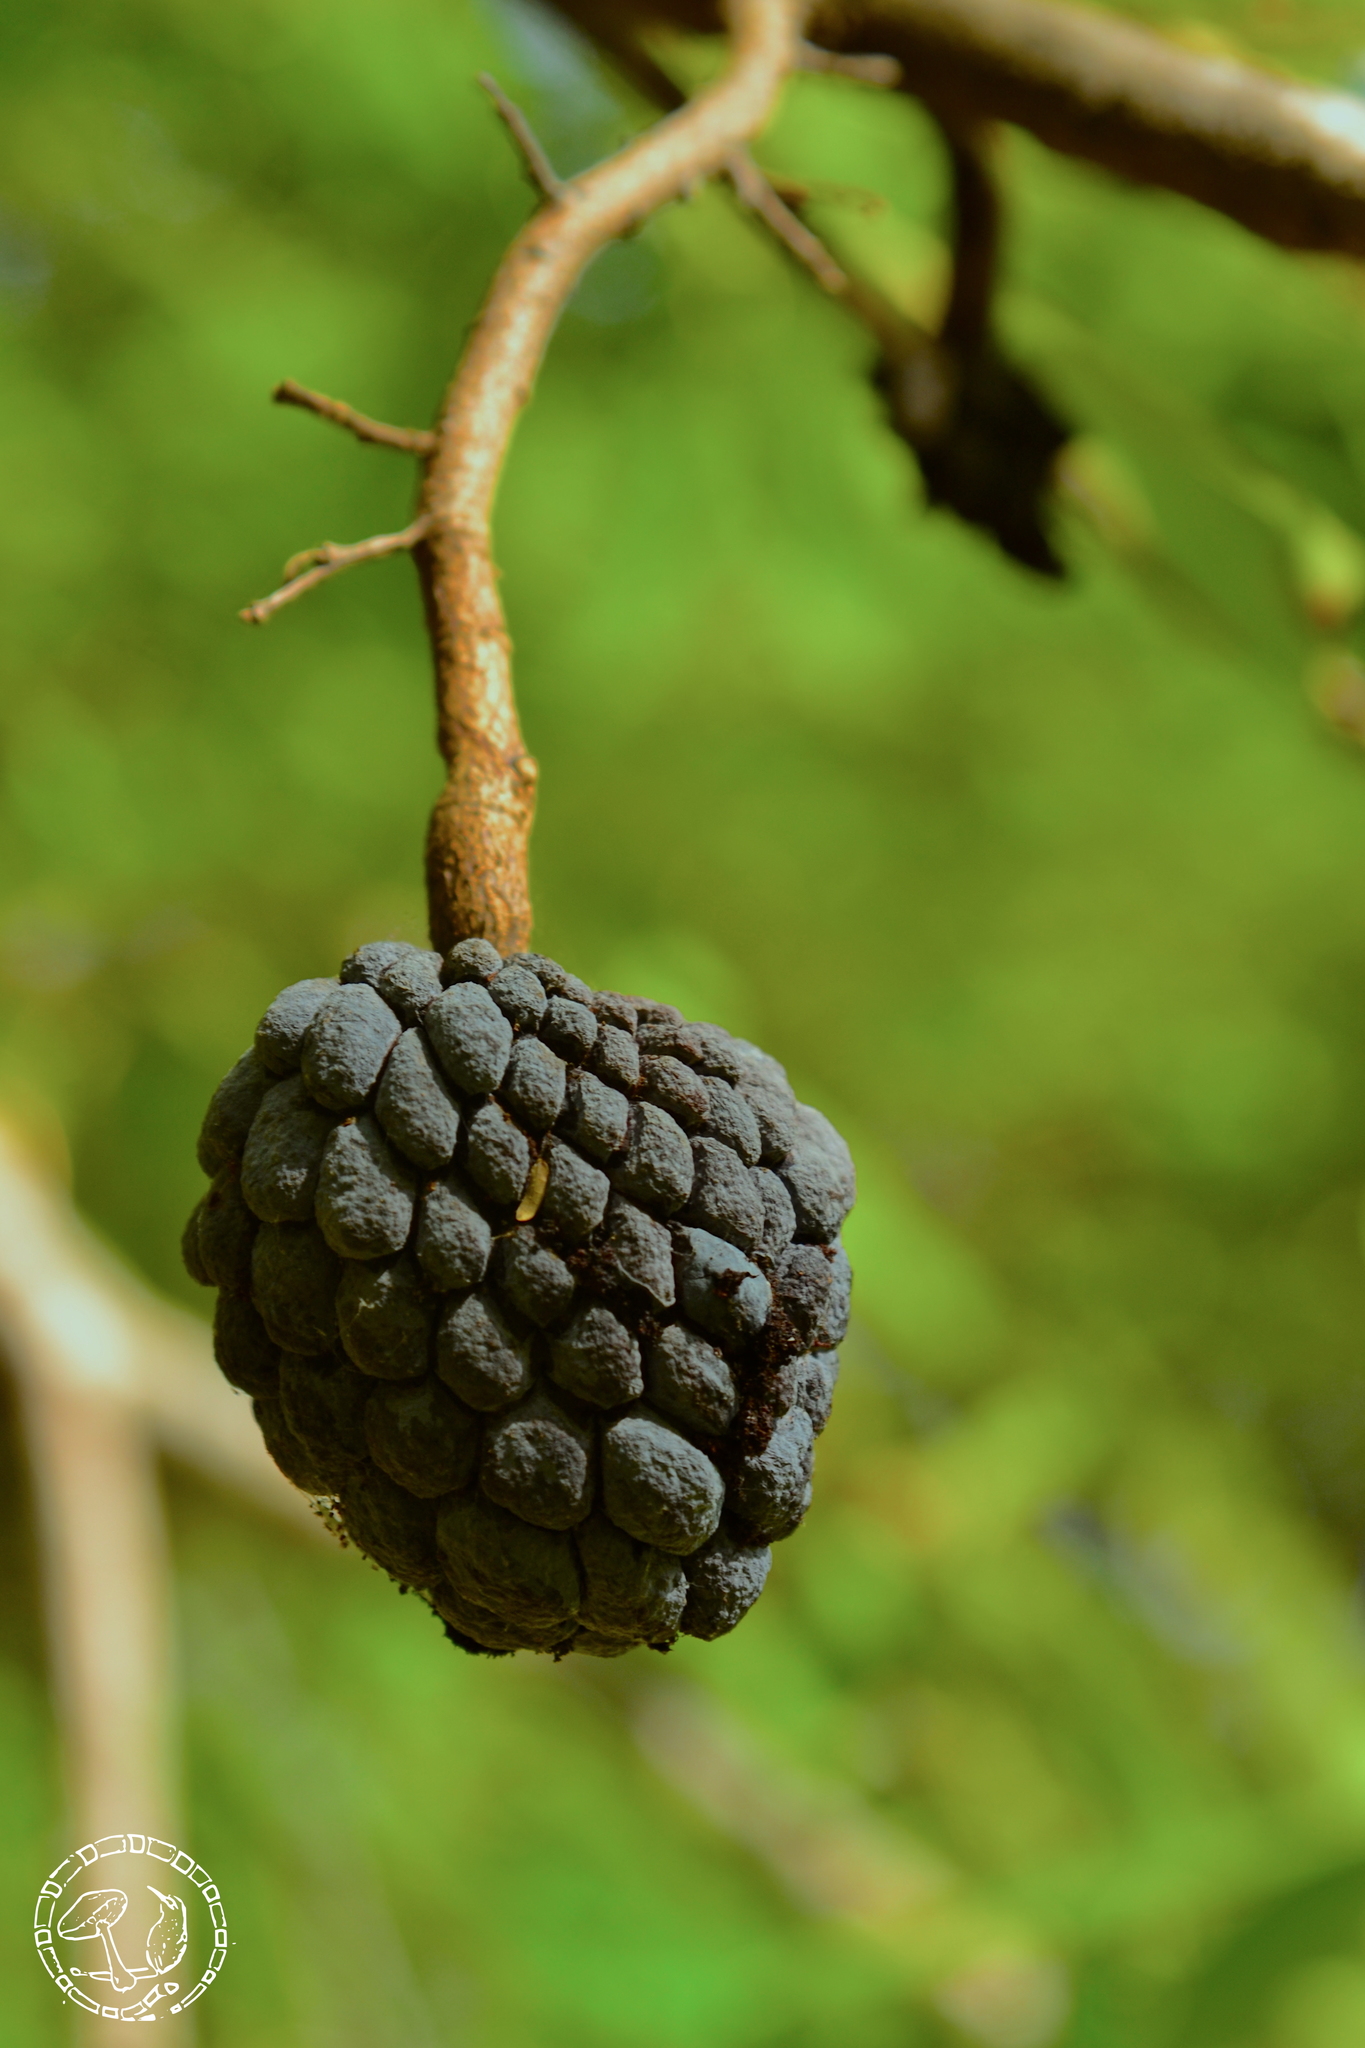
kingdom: Plantae
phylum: Tracheophyta
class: Magnoliopsida
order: Magnoliales
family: Annonaceae
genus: Annona
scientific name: Annona squamosa
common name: Custard-apple
